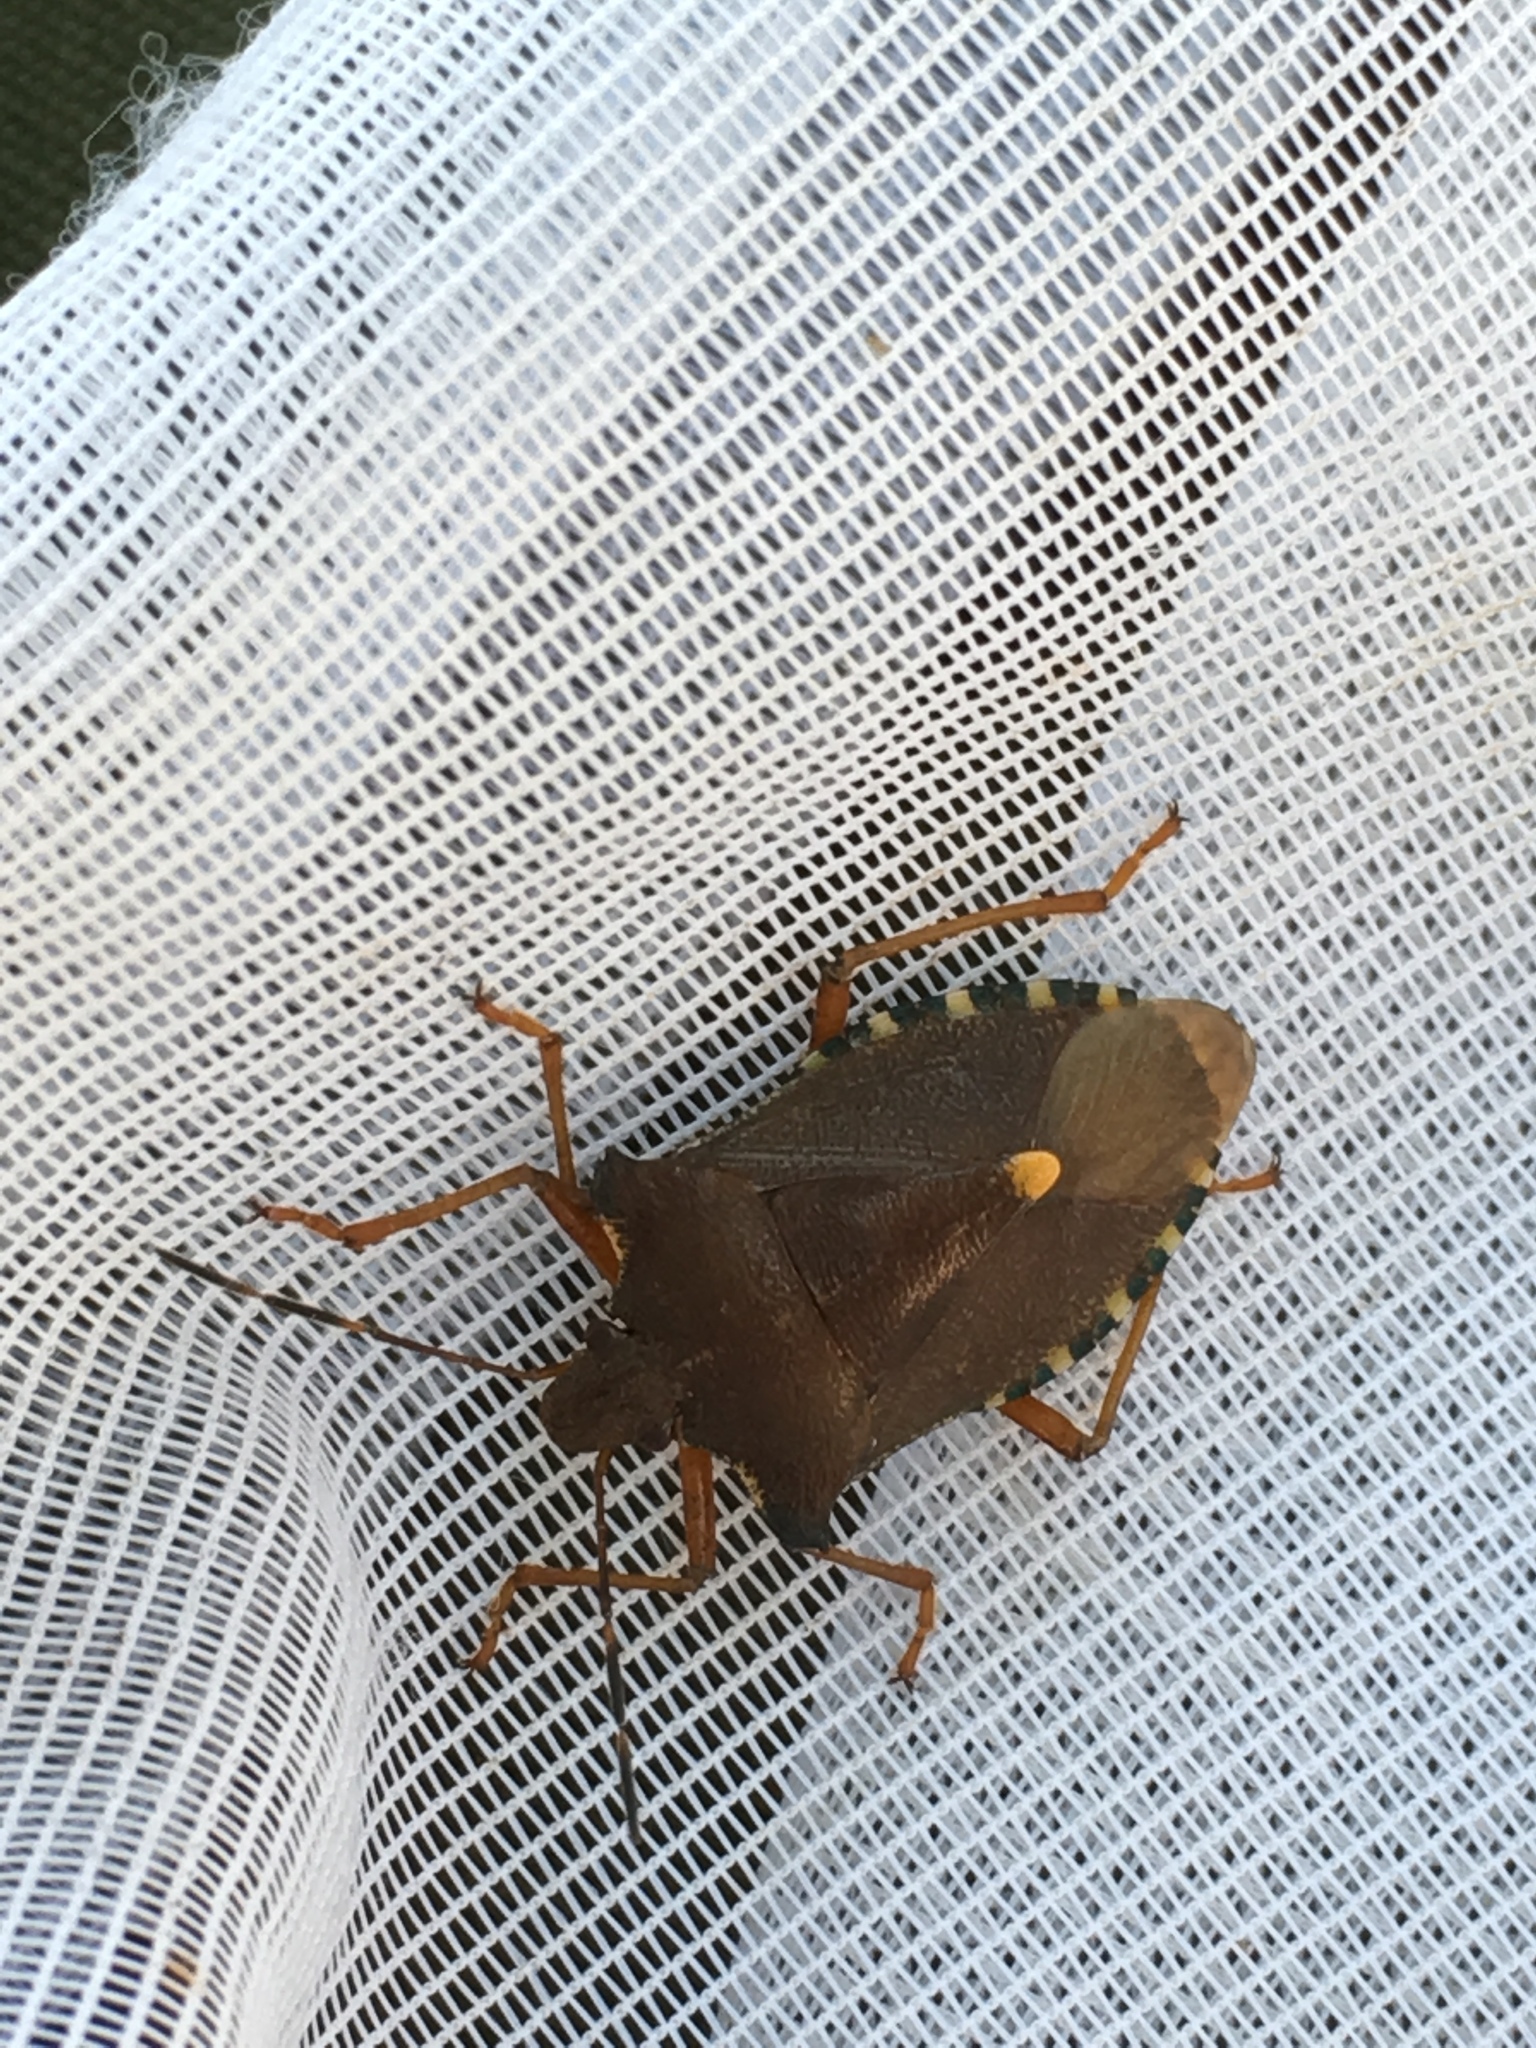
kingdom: Animalia
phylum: Arthropoda
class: Insecta
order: Hemiptera
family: Pentatomidae
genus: Pentatoma
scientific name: Pentatoma rufipes
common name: Forest bug
